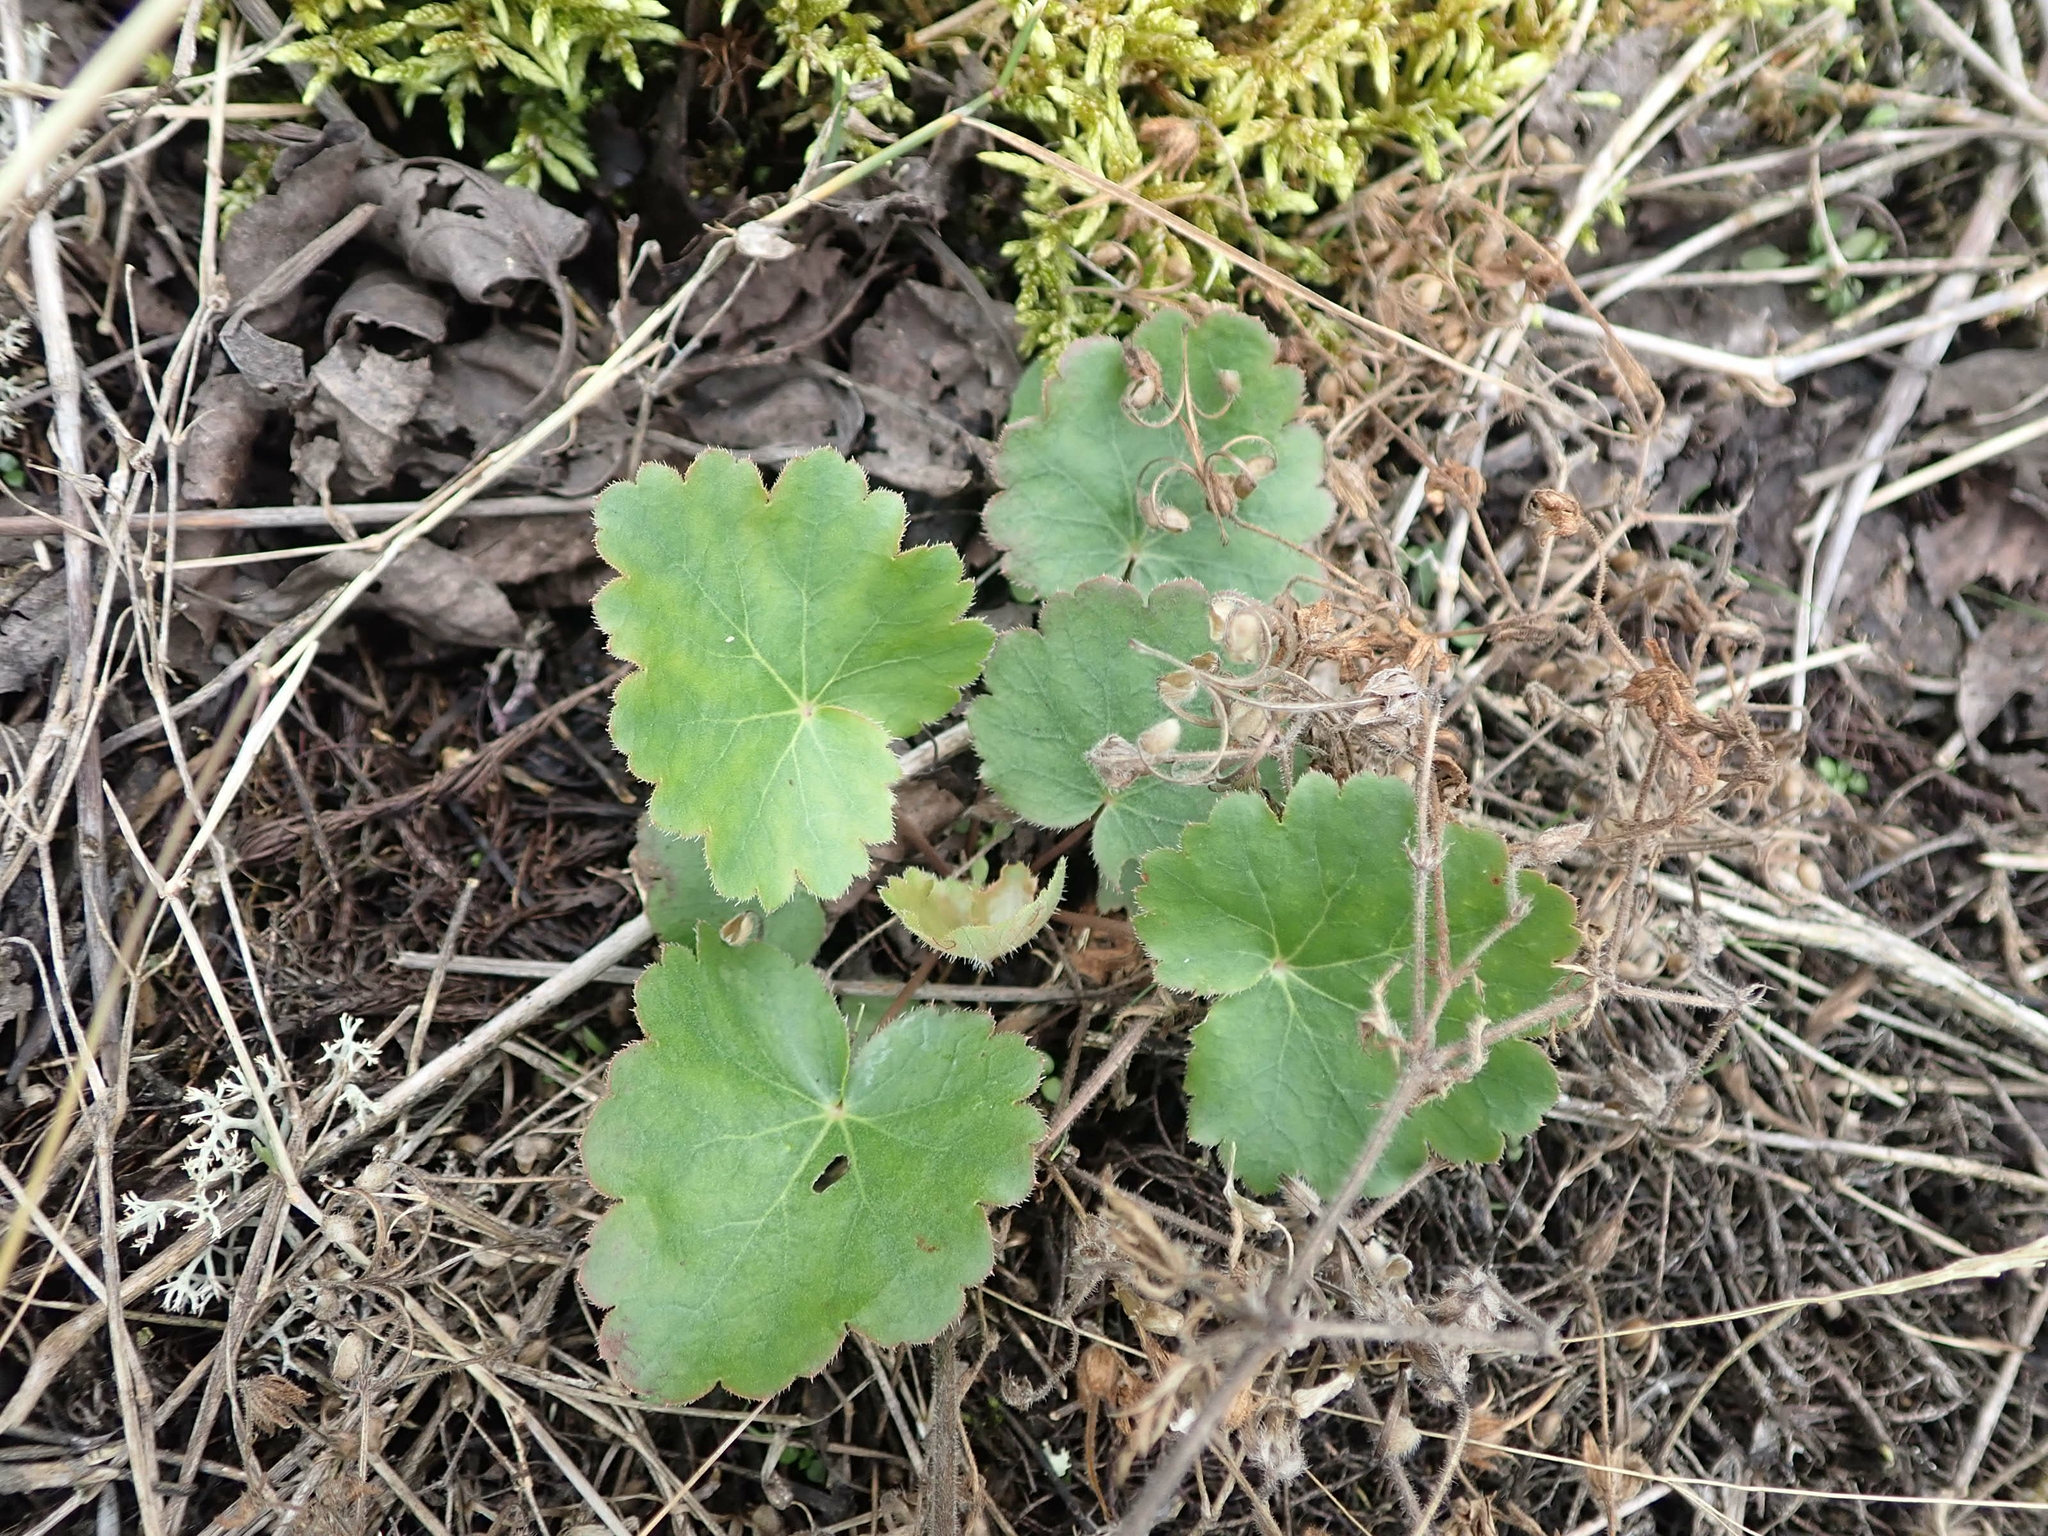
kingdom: Plantae
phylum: Tracheophyta
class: Magnoliopsida
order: Saxifragales
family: Saxifragaceae
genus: Heuchera
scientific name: Heuchera richardsonii
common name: Richardson's alumroot
